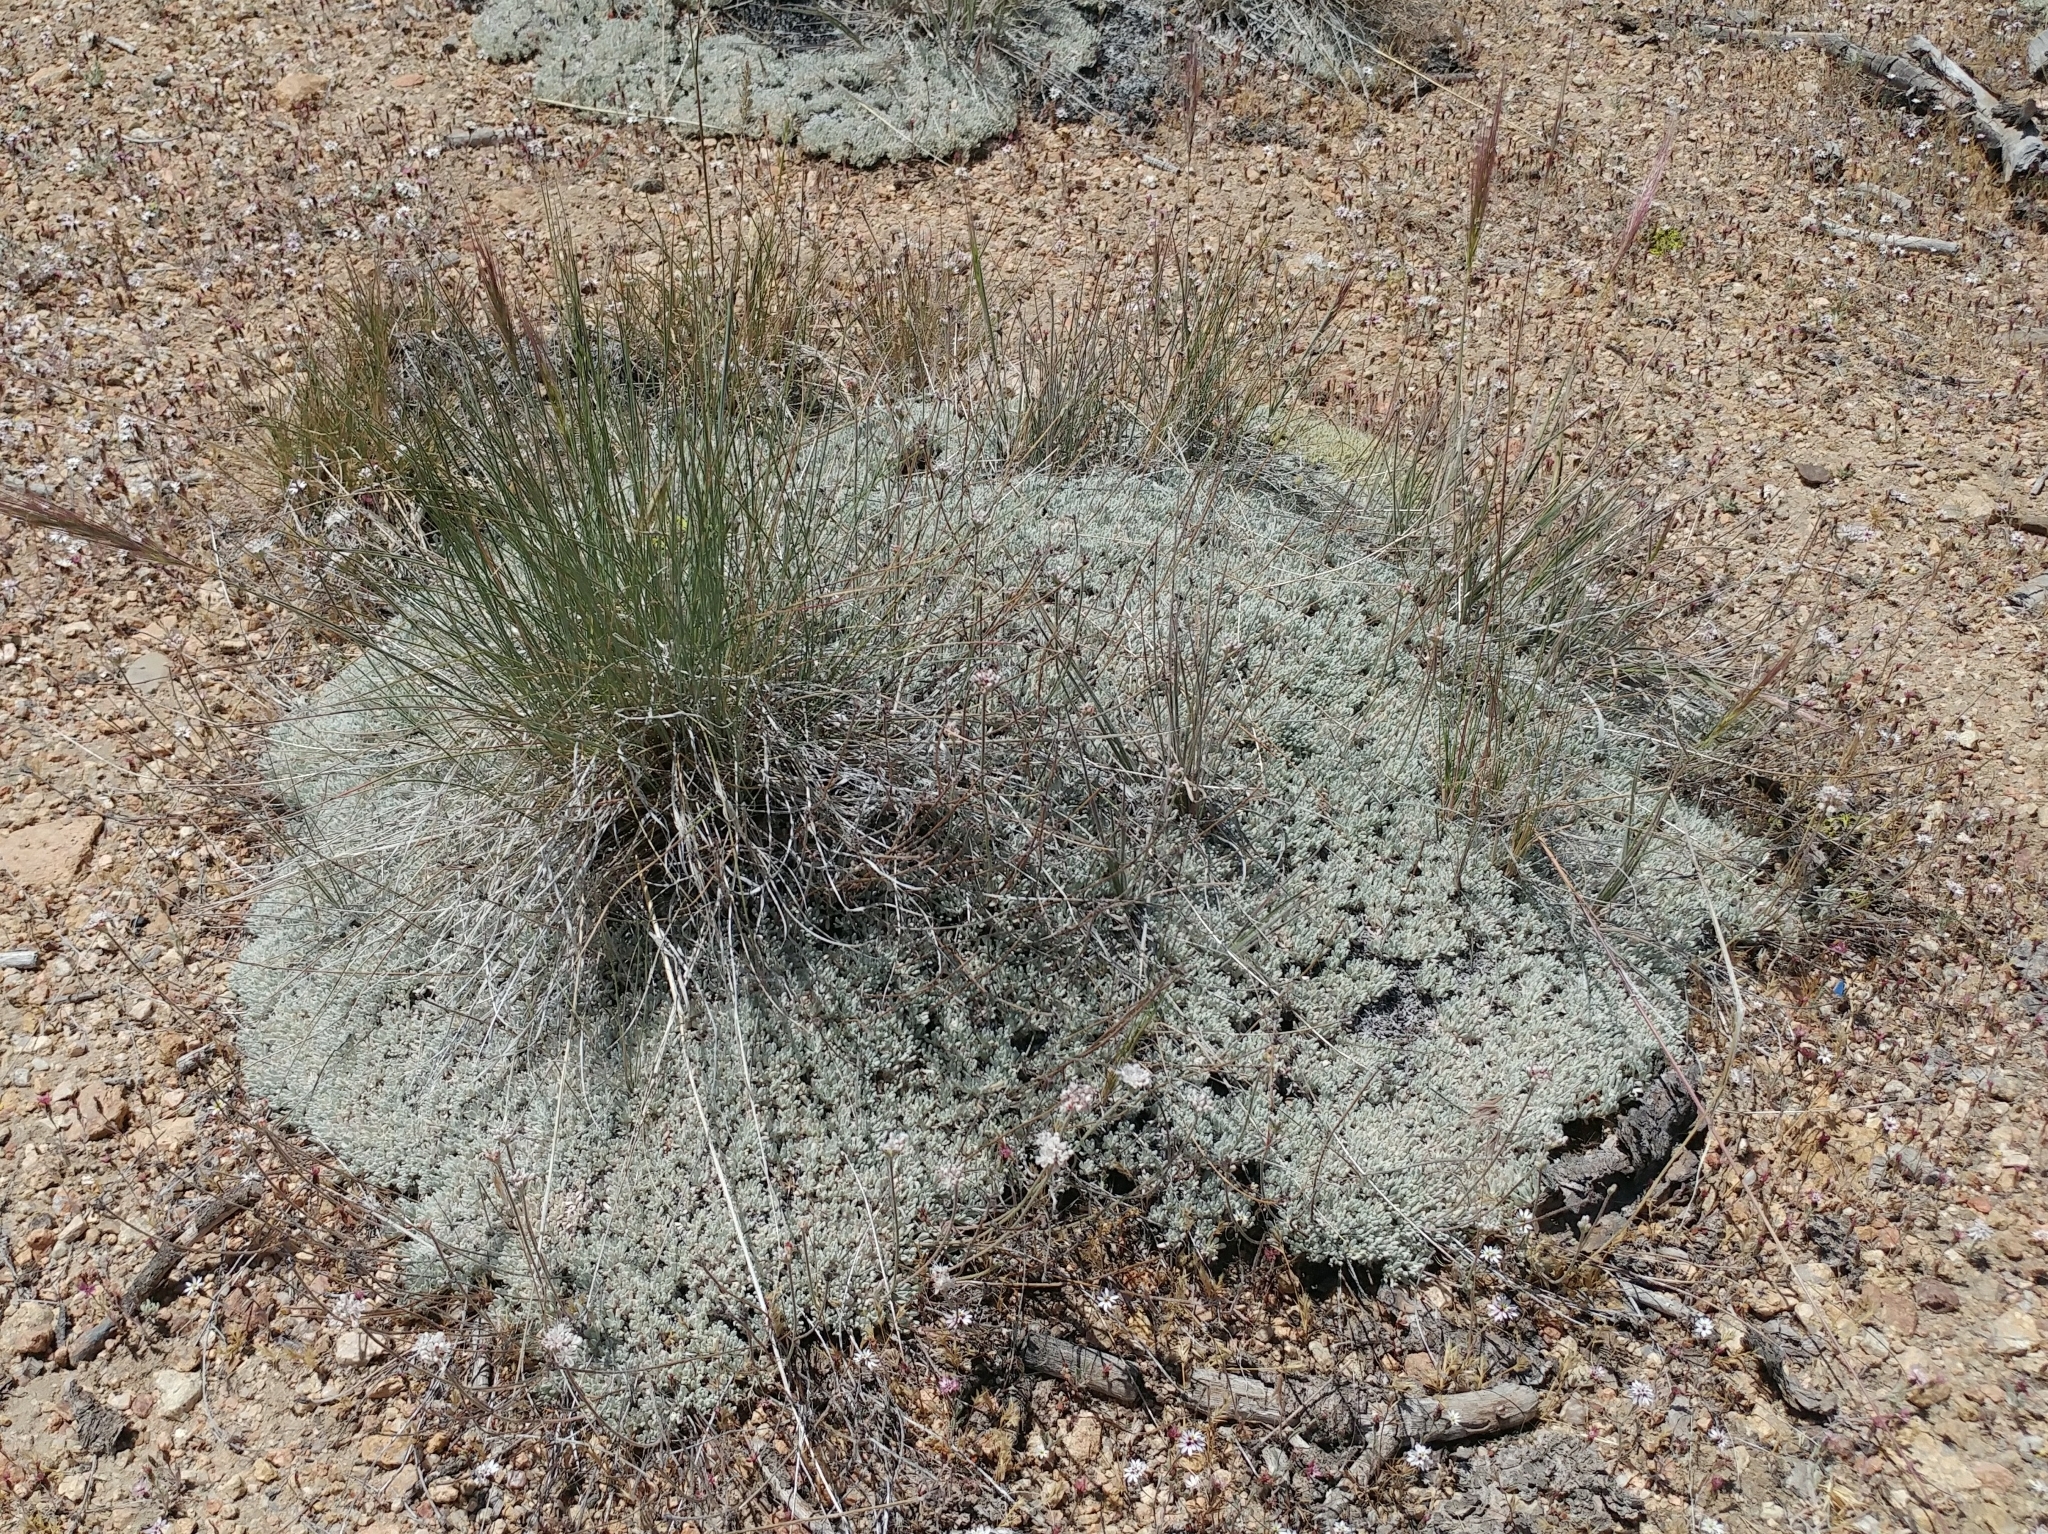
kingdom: Plantae
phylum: Tracheophyta
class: Magnoliopsida
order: Caryophyllales
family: Polygonaceae
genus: Eriogonum
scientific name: Eriogonum kennedyi
